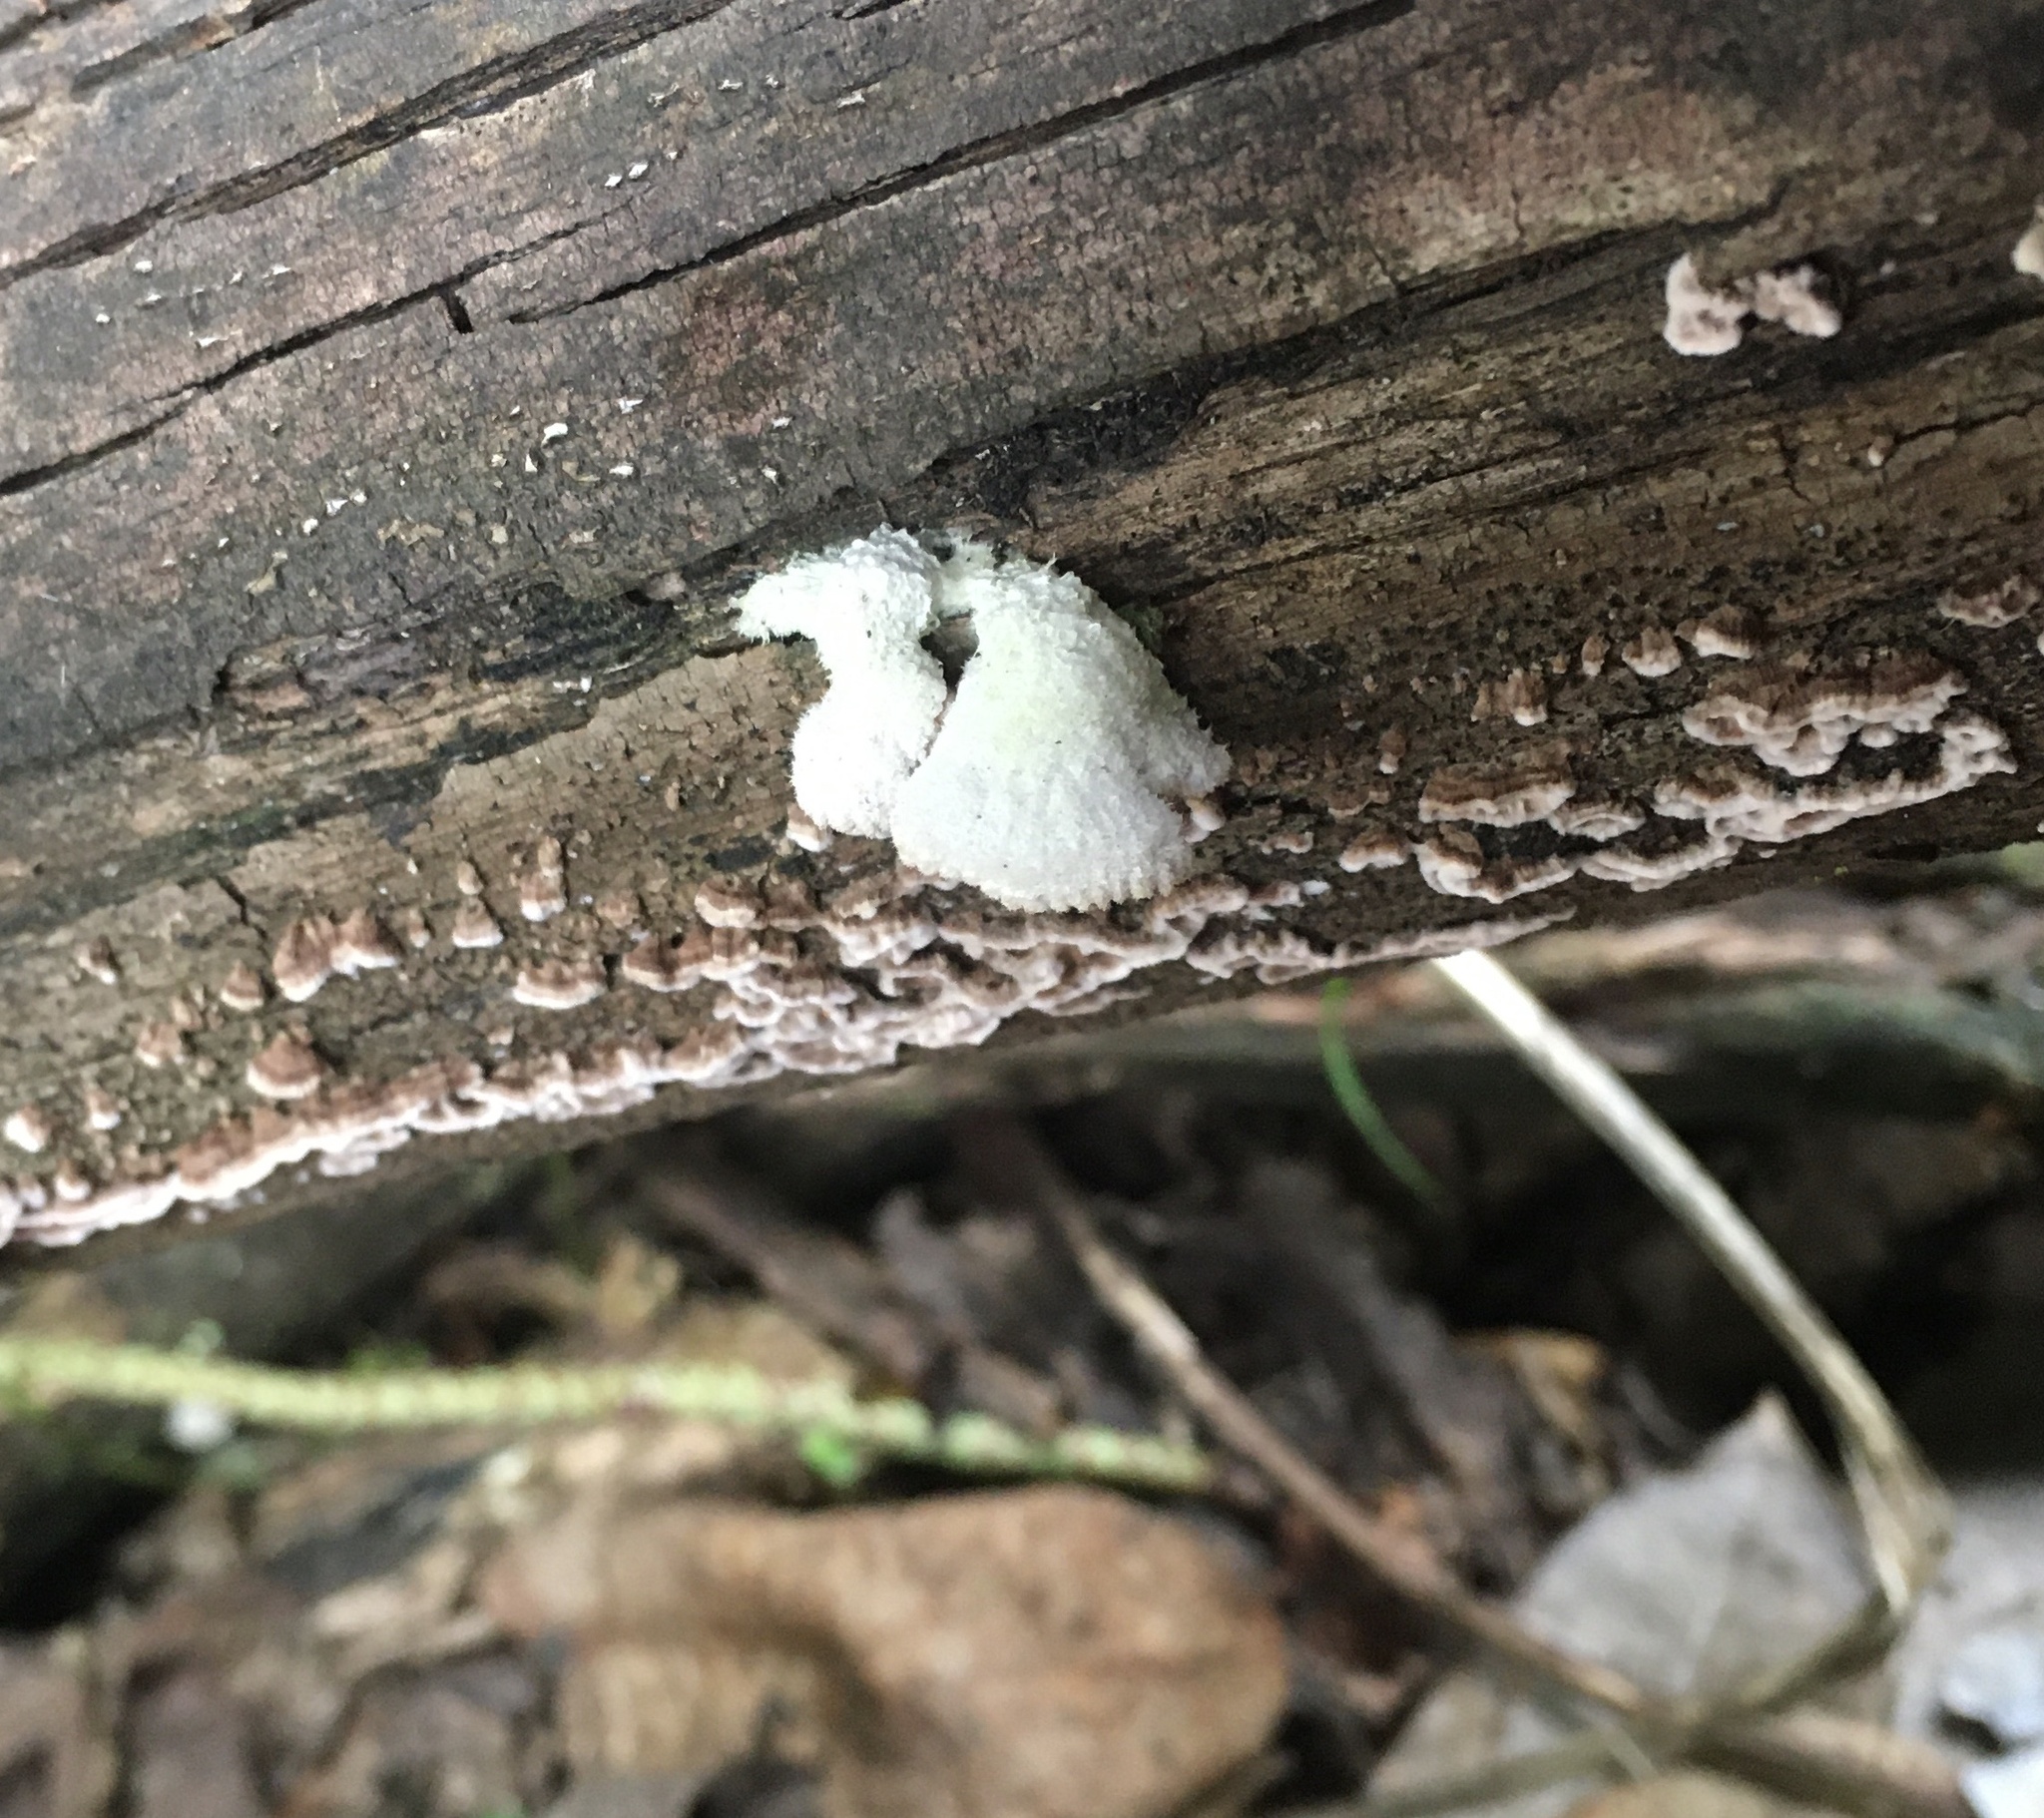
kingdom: Fungi
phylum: Basidiomycota
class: Agaricomycetes
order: Agaricales
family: Schizophyllaceae
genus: Schizophyllum
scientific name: Schizophyllum commune
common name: Common porecrust
